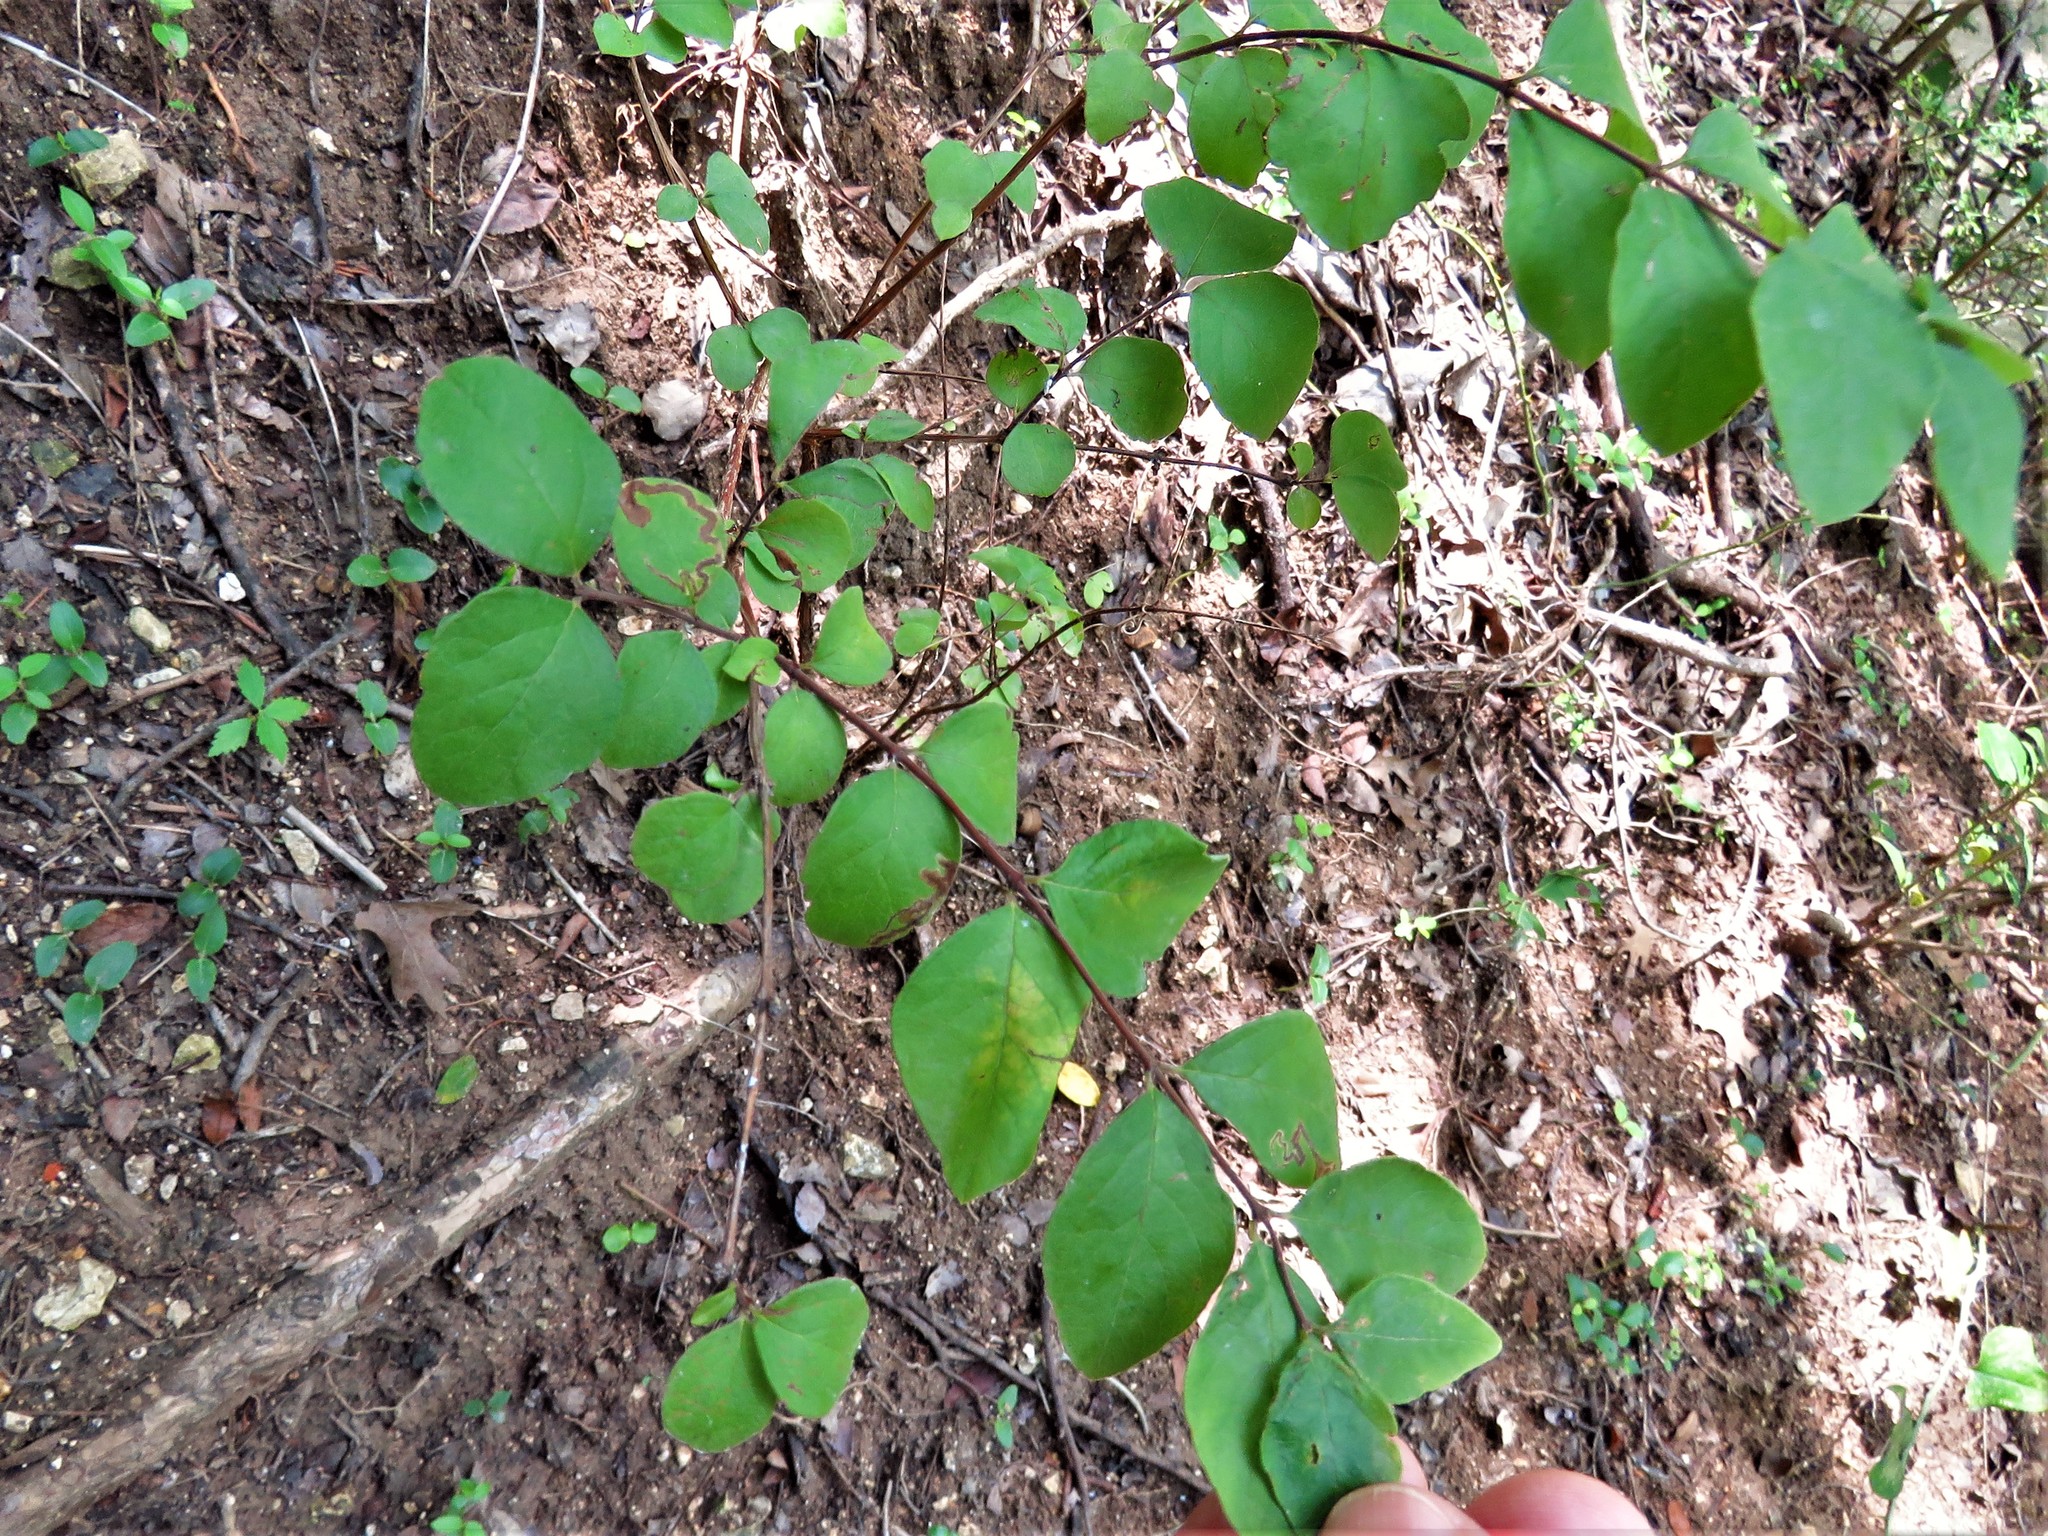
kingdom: Plantae
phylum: Tracheophyta
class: Magnoliopsida
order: Dipsacales
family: Caprifoliaceae
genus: Symphoricarpos
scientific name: Symphoricarpos orbiculatus
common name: Coralberry
